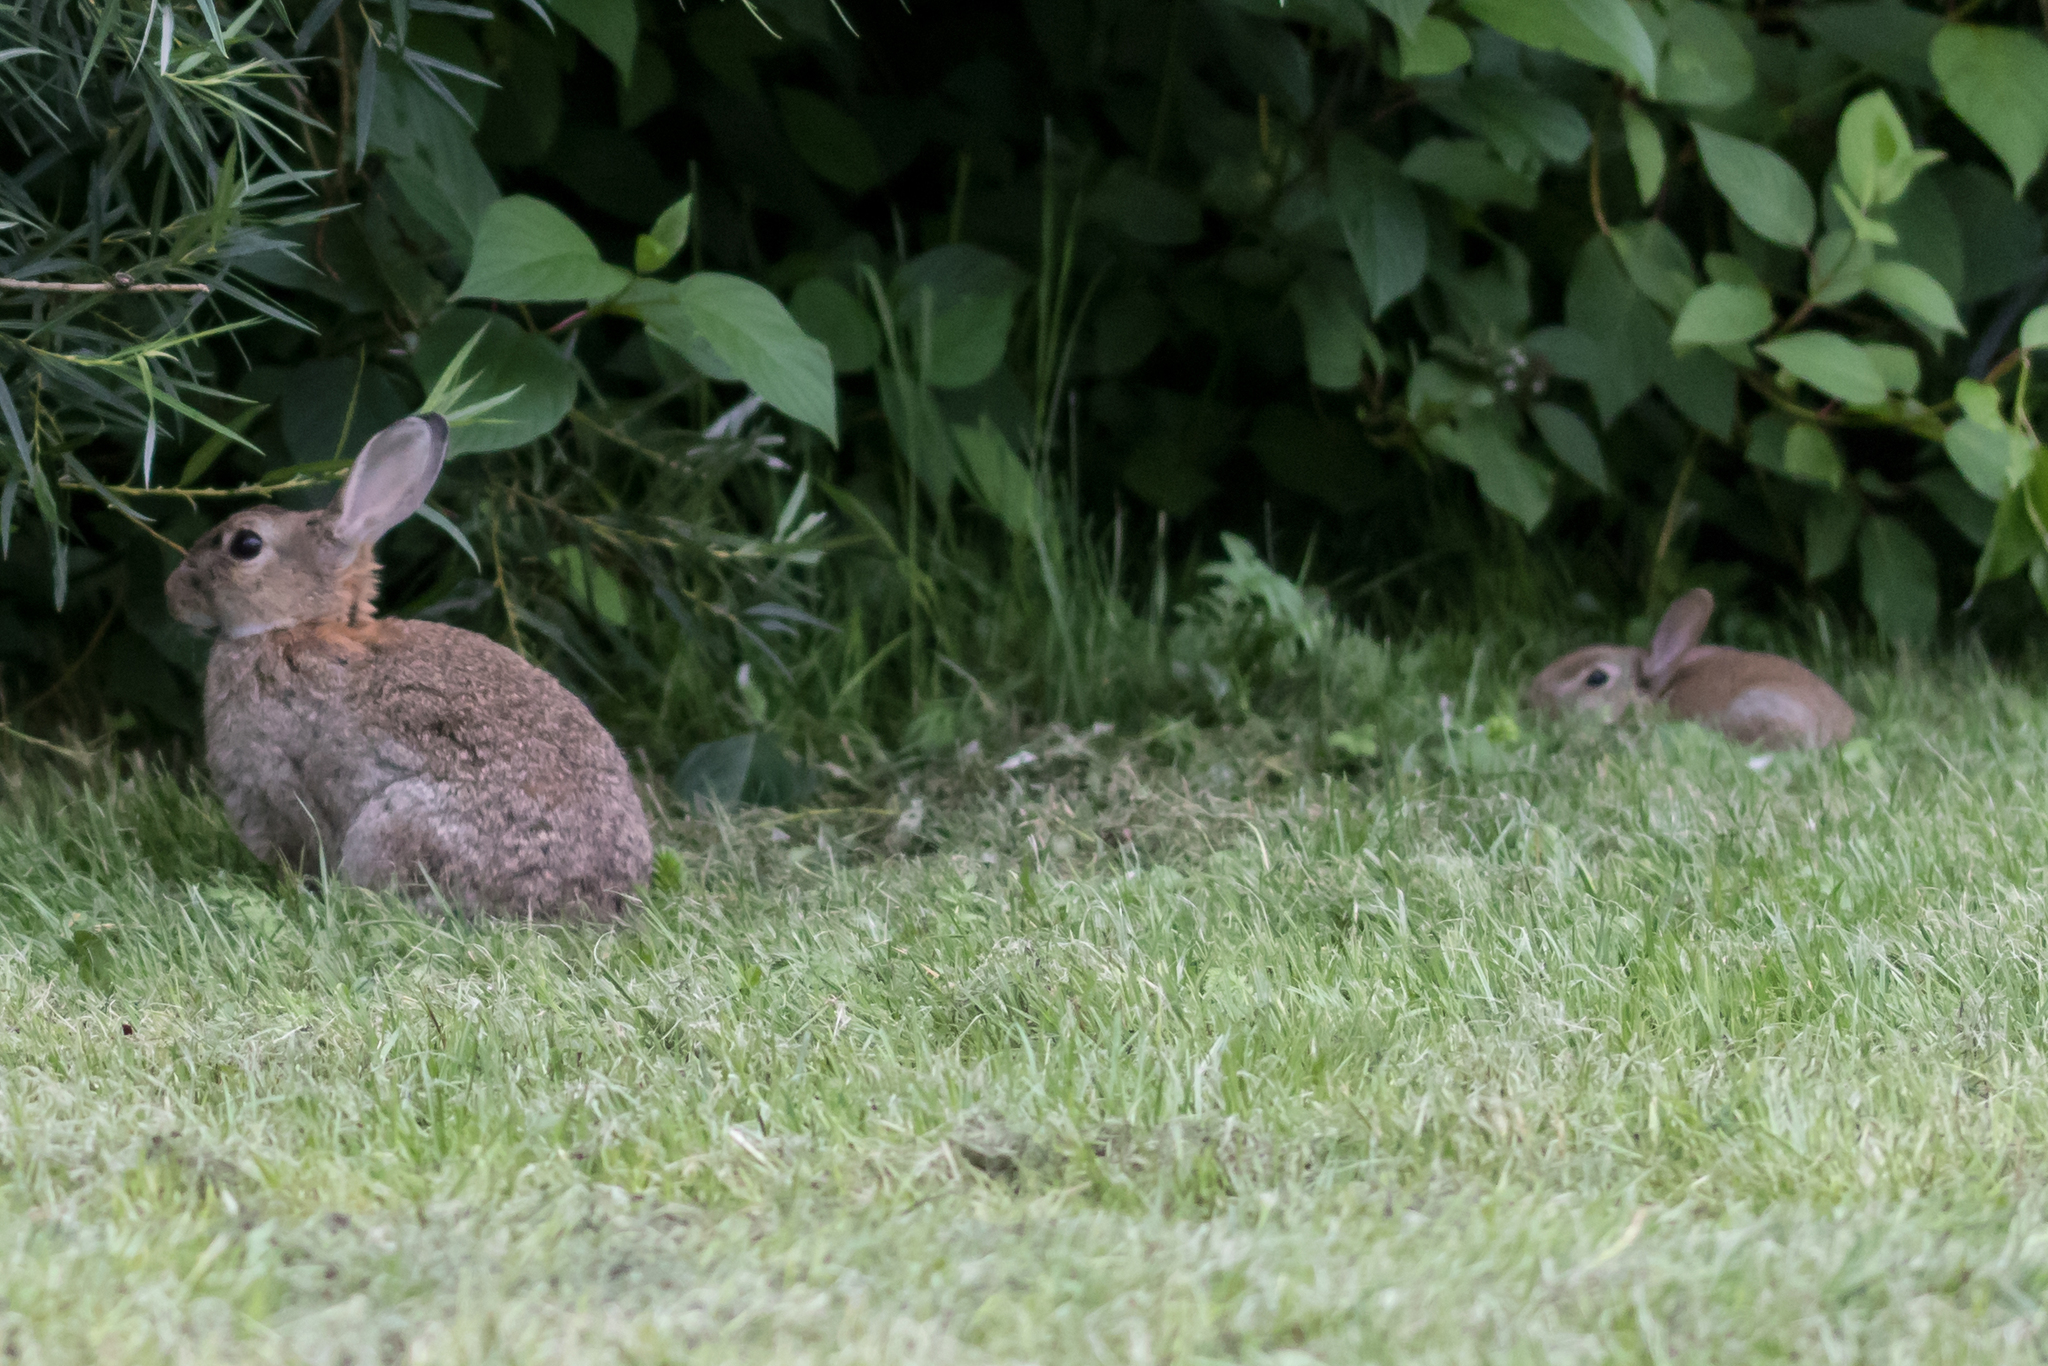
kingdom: Animalia
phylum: Chordata
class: Mammalia
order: Lagomorpha
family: Leporidae
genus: Oryctolagus
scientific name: Oryctolagus cuniculus
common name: European rabbit
